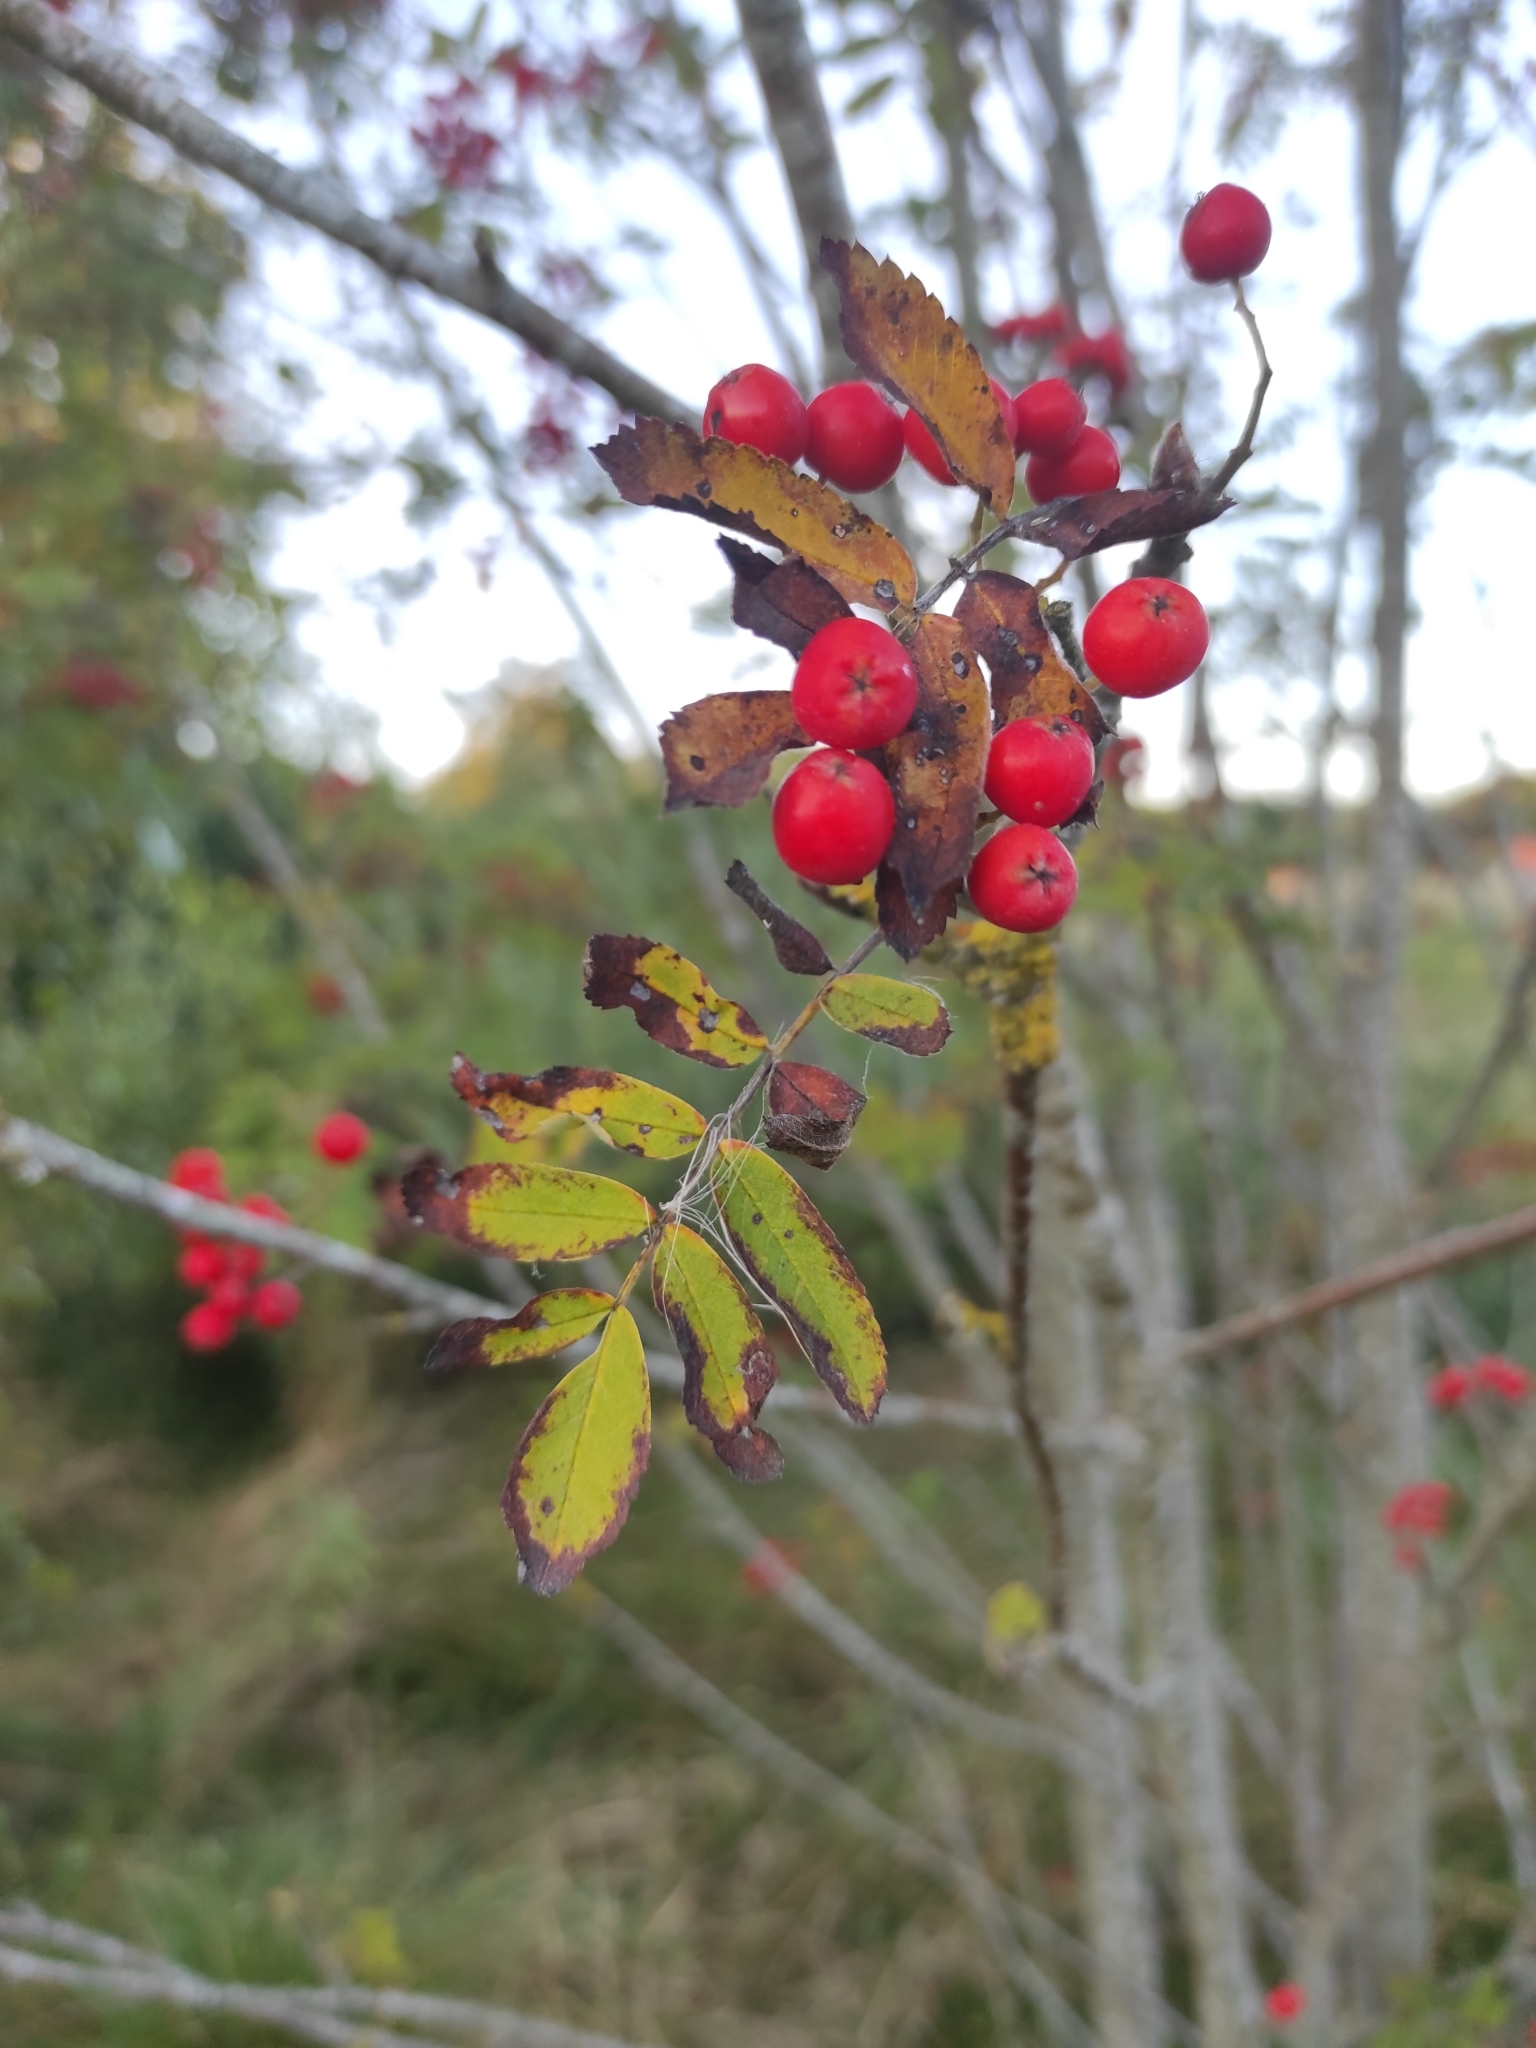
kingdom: Plantae
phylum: Tracheophyta
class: Magnoliopsida
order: Rosales
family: Rosaceae
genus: Sorbus
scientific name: Sorbus aucuparia
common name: Rowan
